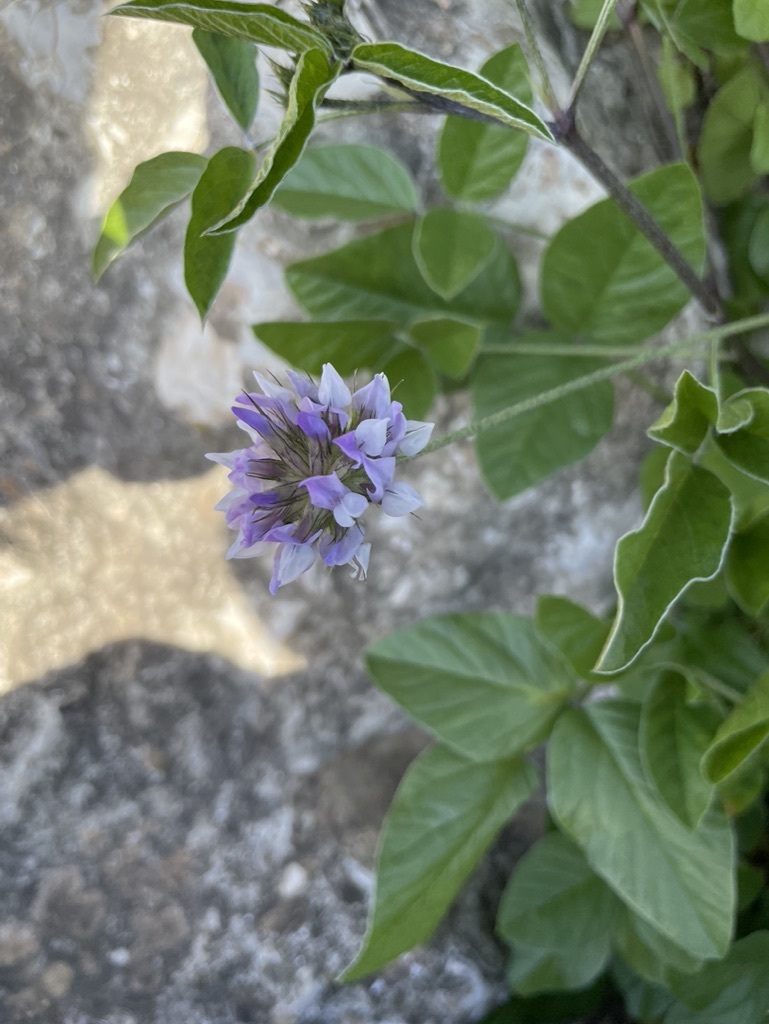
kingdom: Plantae
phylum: Tracheophyta
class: Magnoliopsida
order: Fabales
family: Fabaceae
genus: Bituminaria
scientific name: Bituminaria bituminosa
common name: Arabian pea
